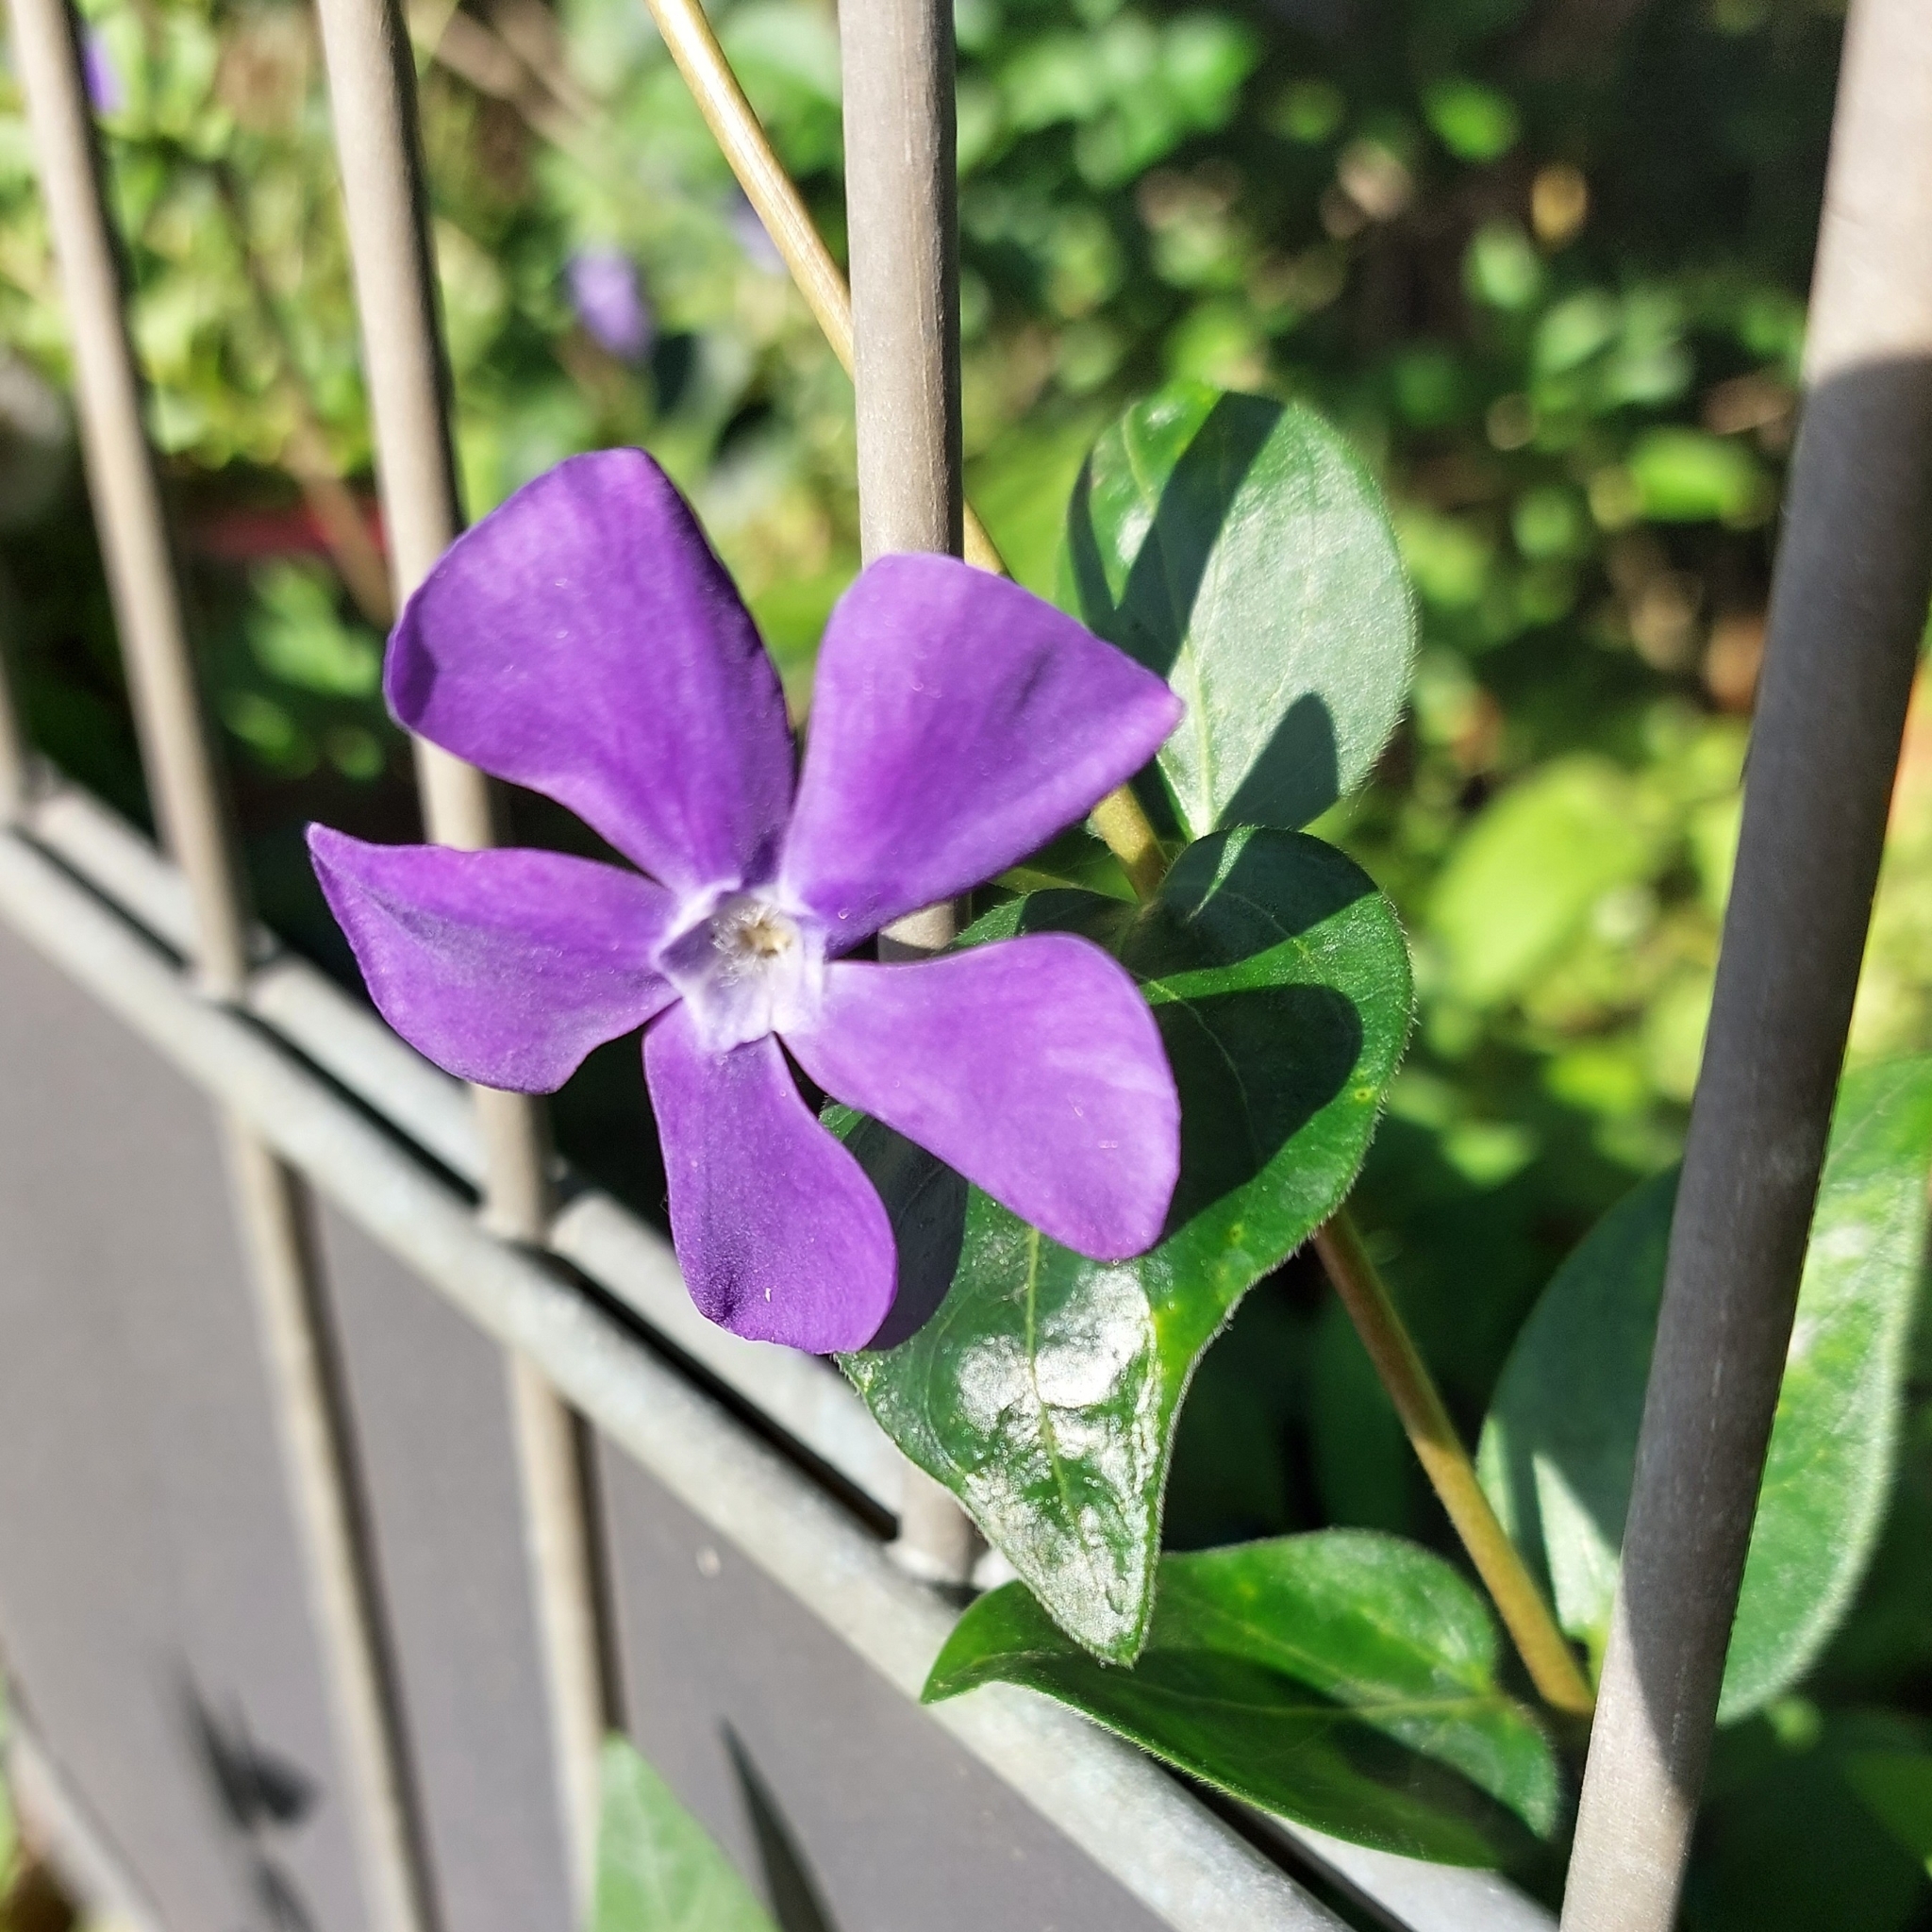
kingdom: Plantae
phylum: Tracheophyta
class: Magnoliopsida
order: Gentianales
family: Apocynaceae
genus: Vinca
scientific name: Vinca major
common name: Greater periwinkle
